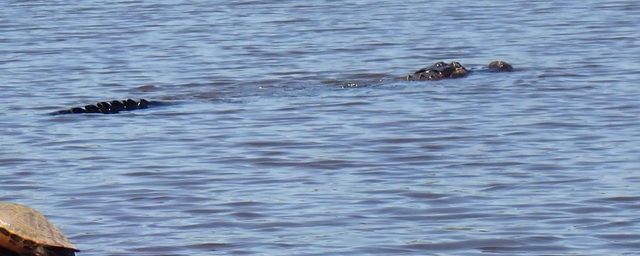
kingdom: Animalia
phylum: Chordata
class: Crocodylia
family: Alligatoridae
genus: Alligator
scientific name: Alligator mississippiensis
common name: American alligator
